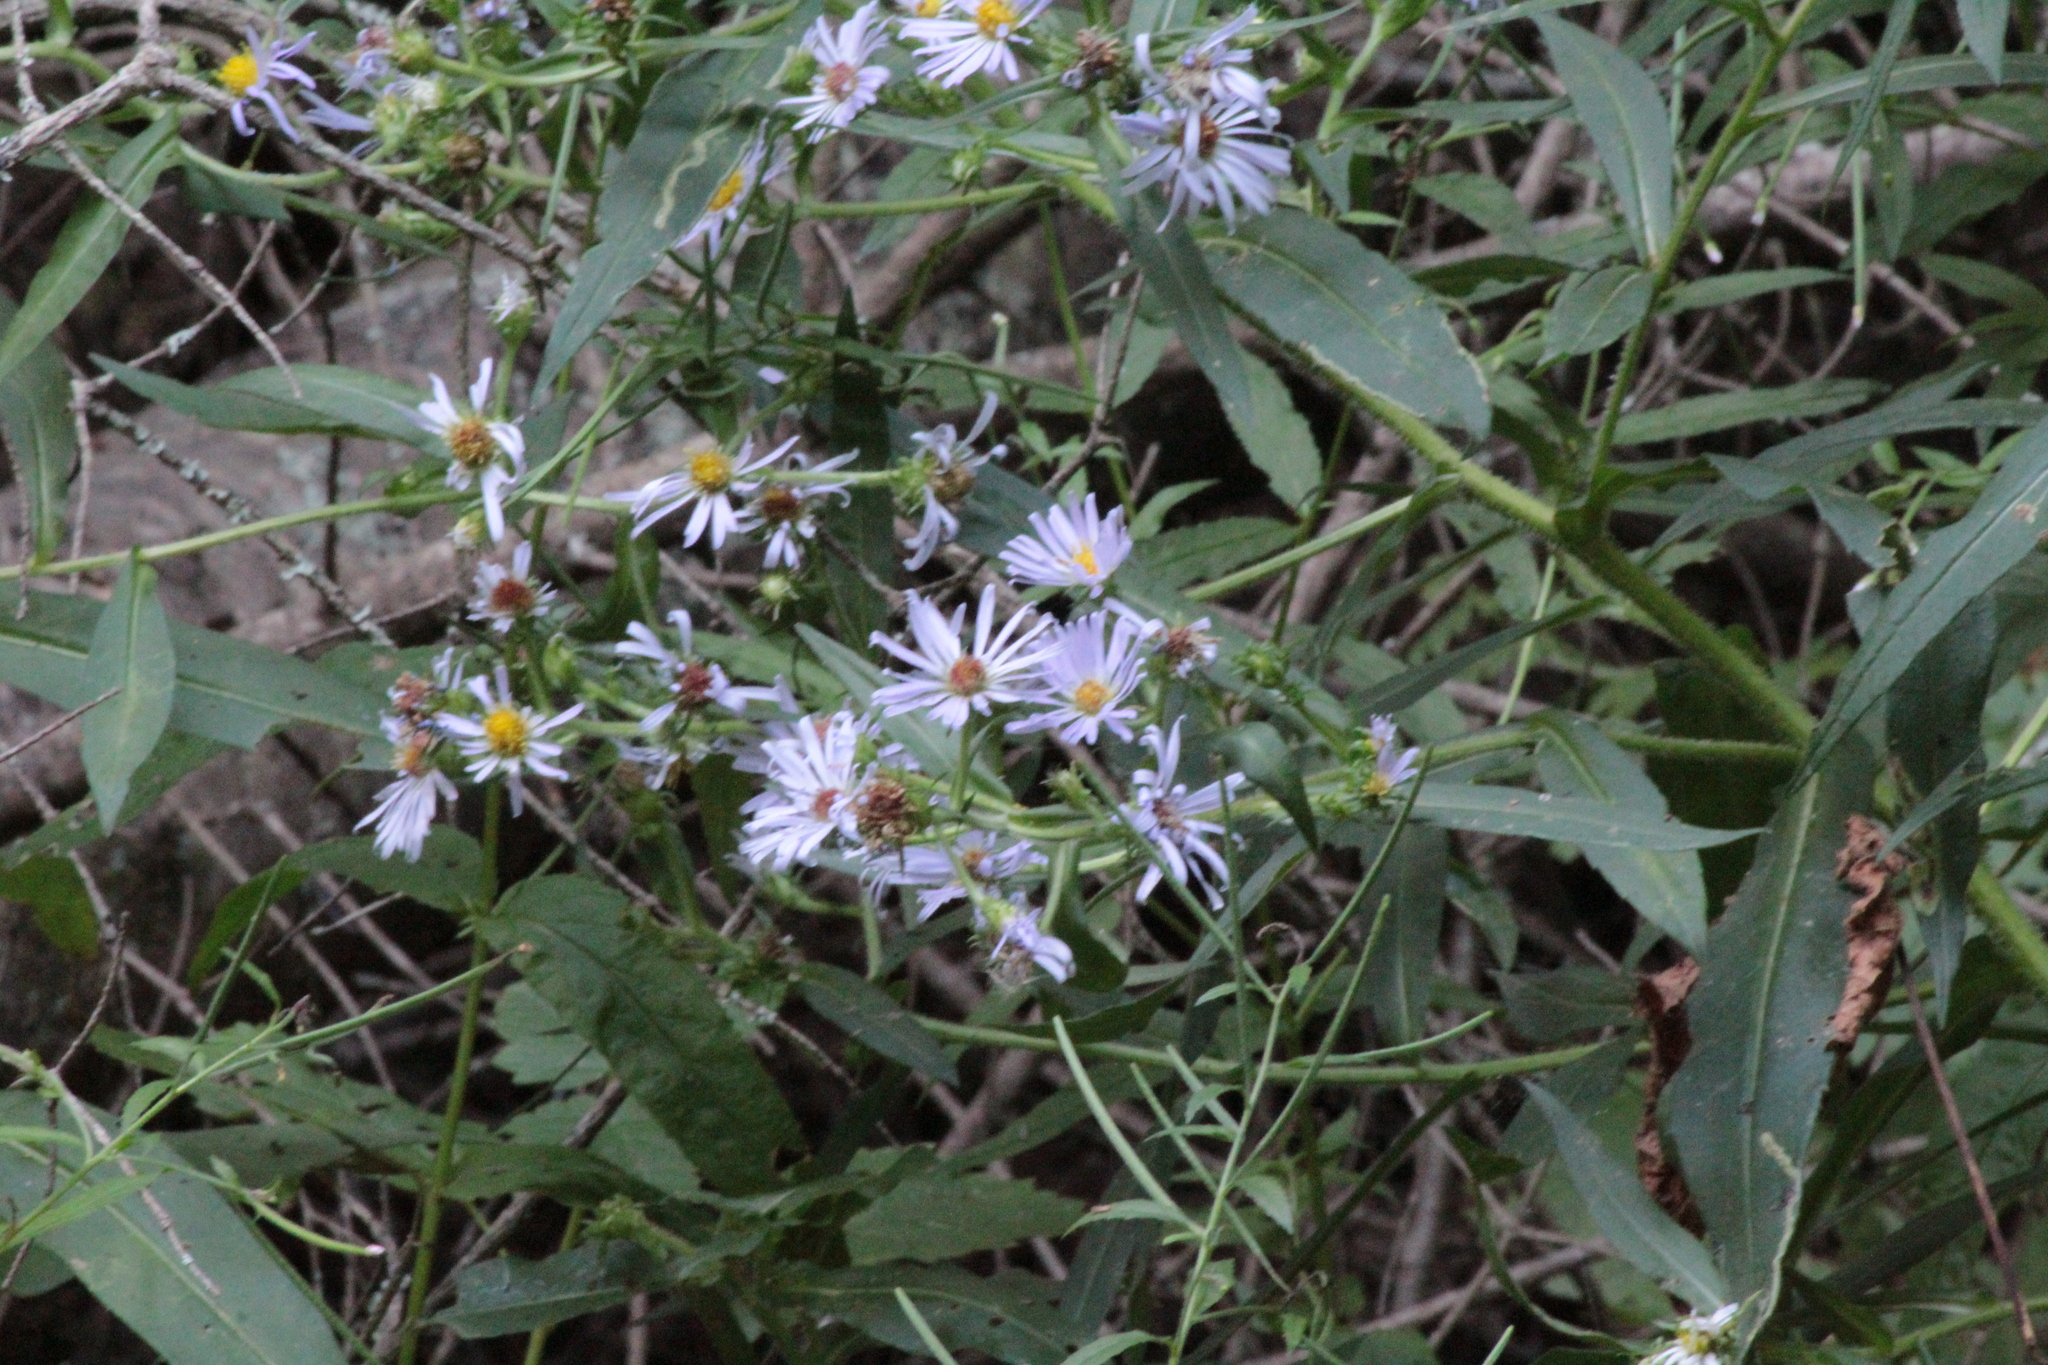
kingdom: Plantae
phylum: Tracheophyta
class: Magnoliopsida
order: Asterales
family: Asteraceae
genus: Symphyotrichum
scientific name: Symphyotrichum novi-belgii
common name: Michaelmas daisy
